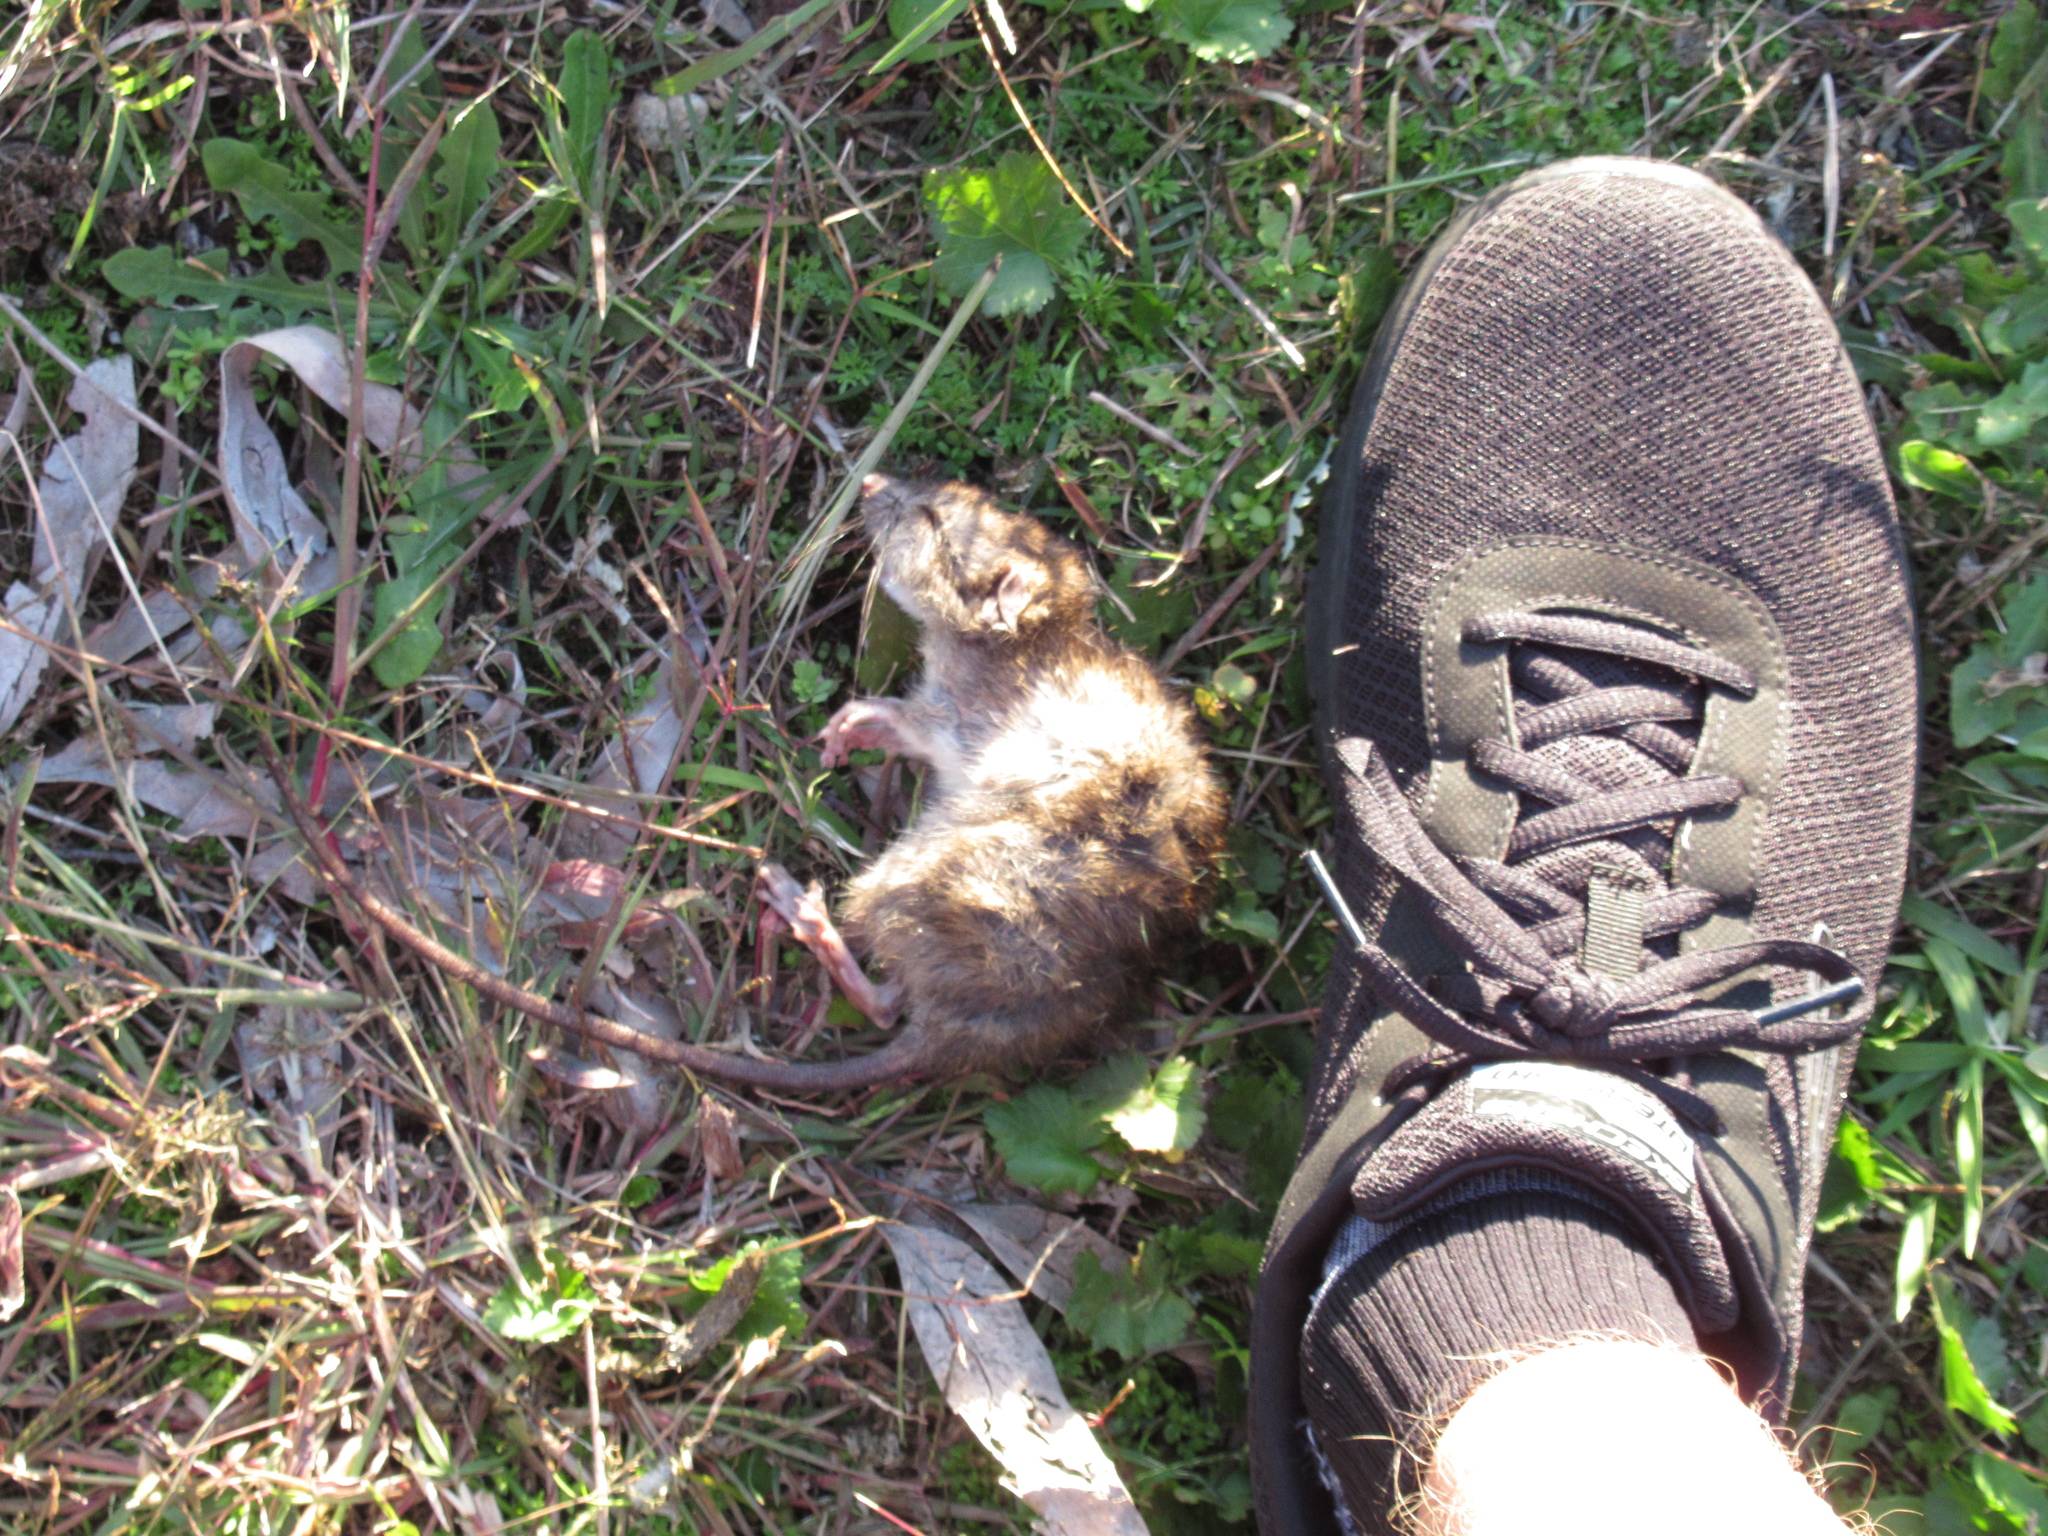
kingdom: Animalia
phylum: Chordata
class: Mammalia
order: Rodentia
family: Muridae
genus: Rattus
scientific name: Rattus rattus
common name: Black rat
